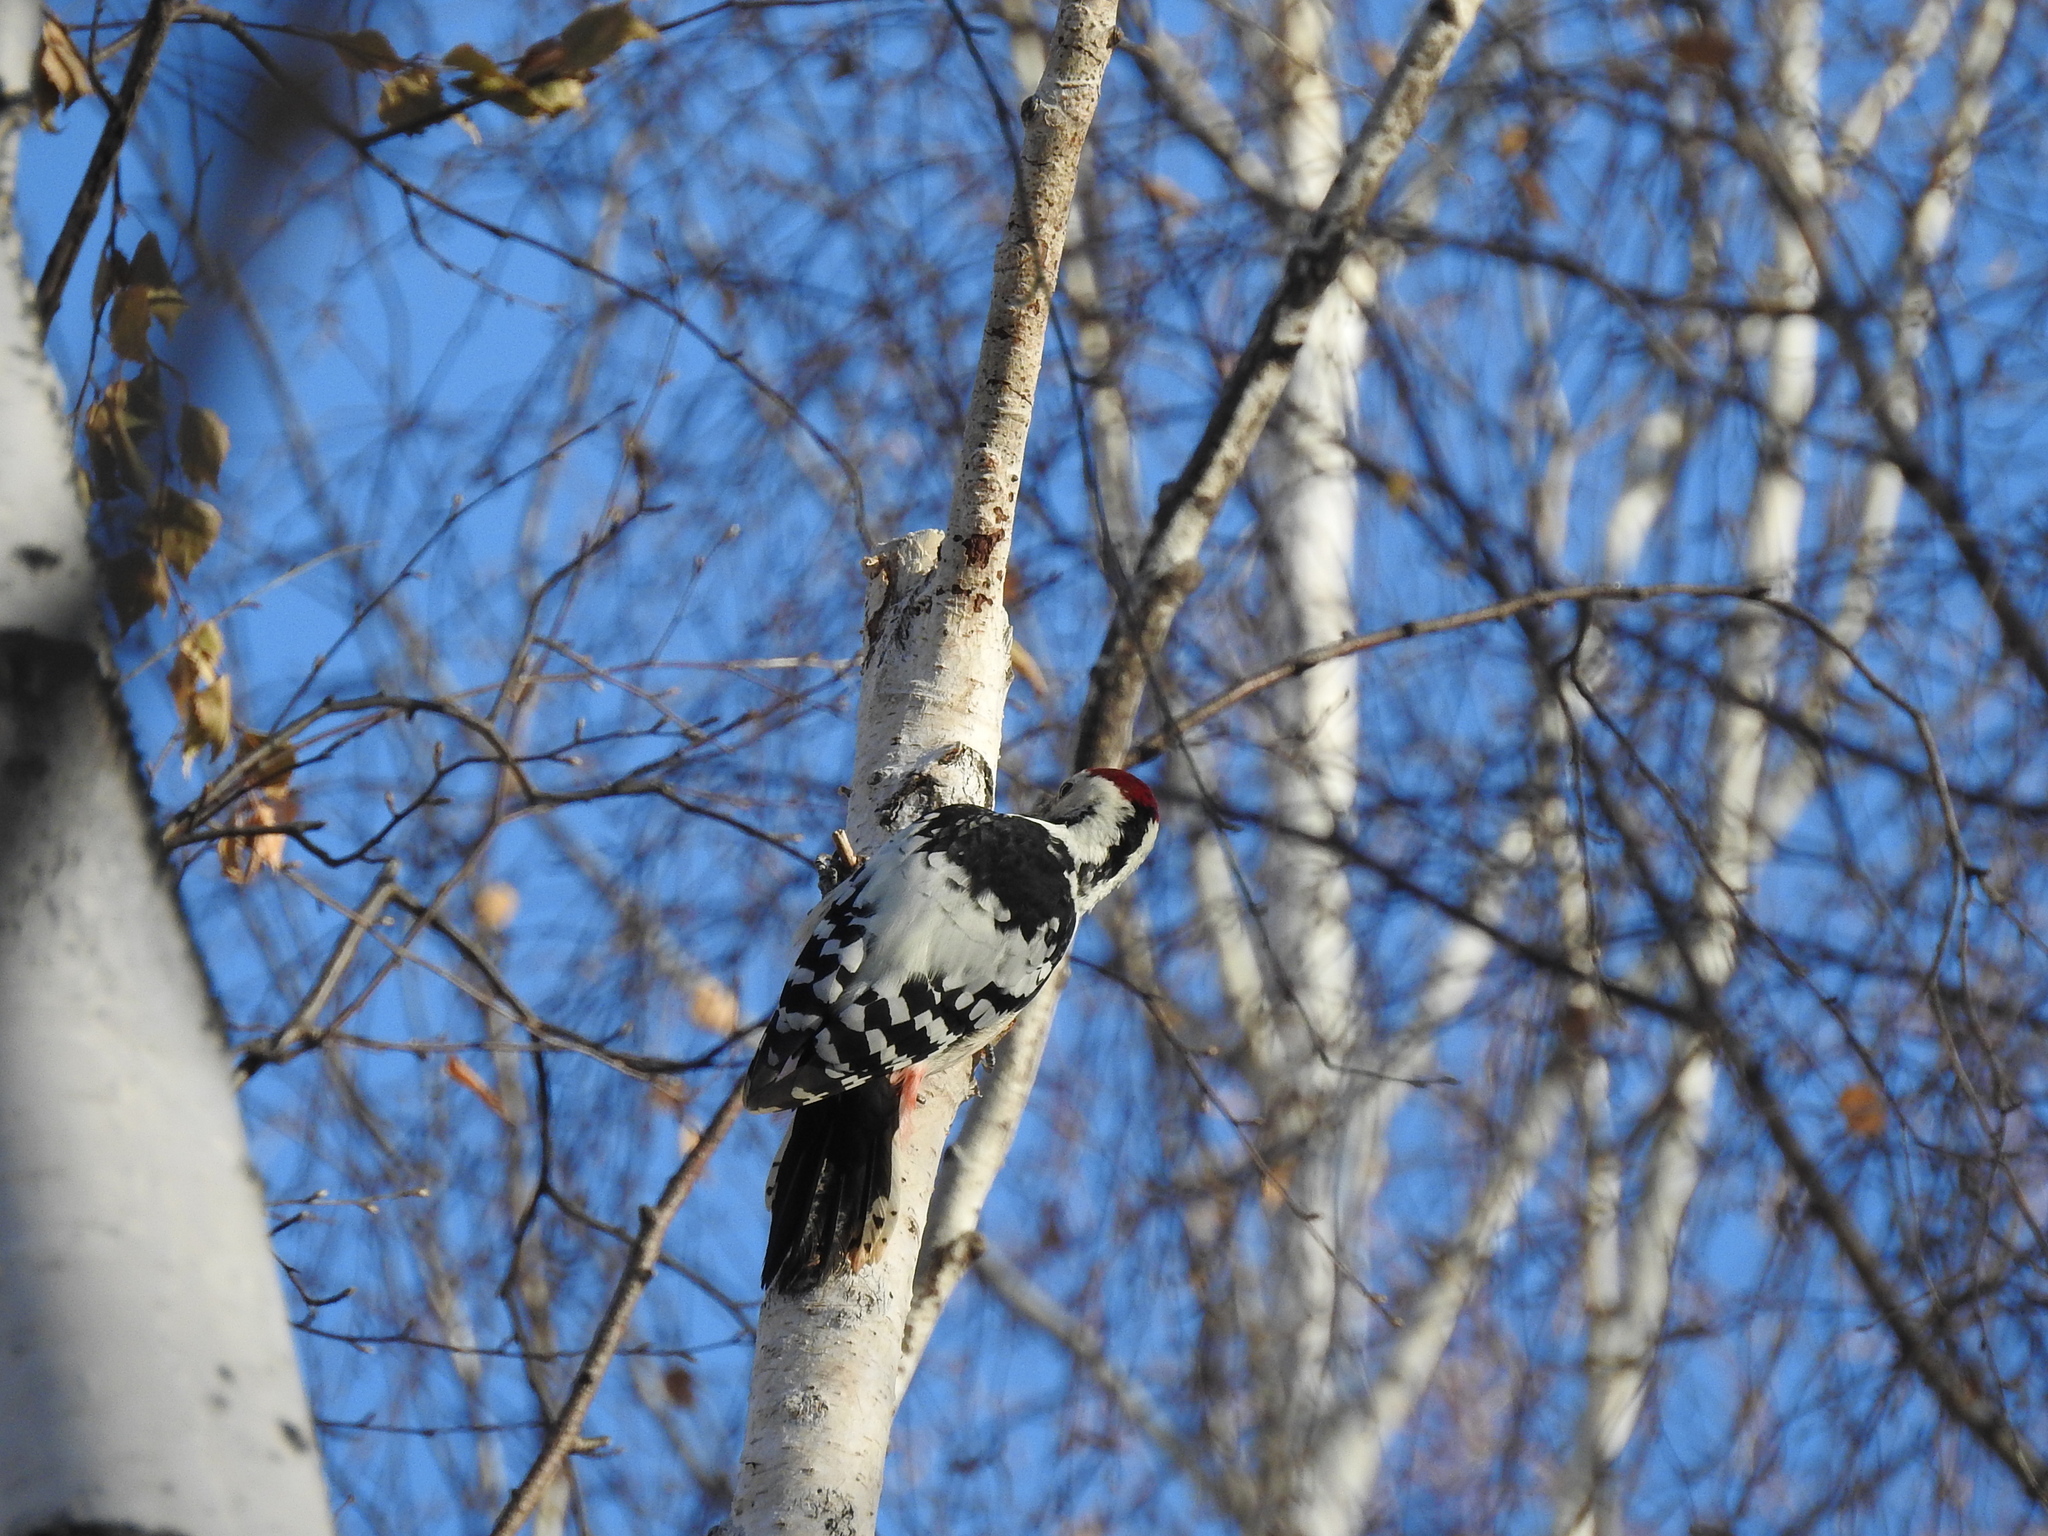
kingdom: Animalia
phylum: Chordata
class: Aves
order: Piciformes
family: Picidae
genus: Dendrocopos
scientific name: Dendrocopos leucotos
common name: White-backed woodpecker
